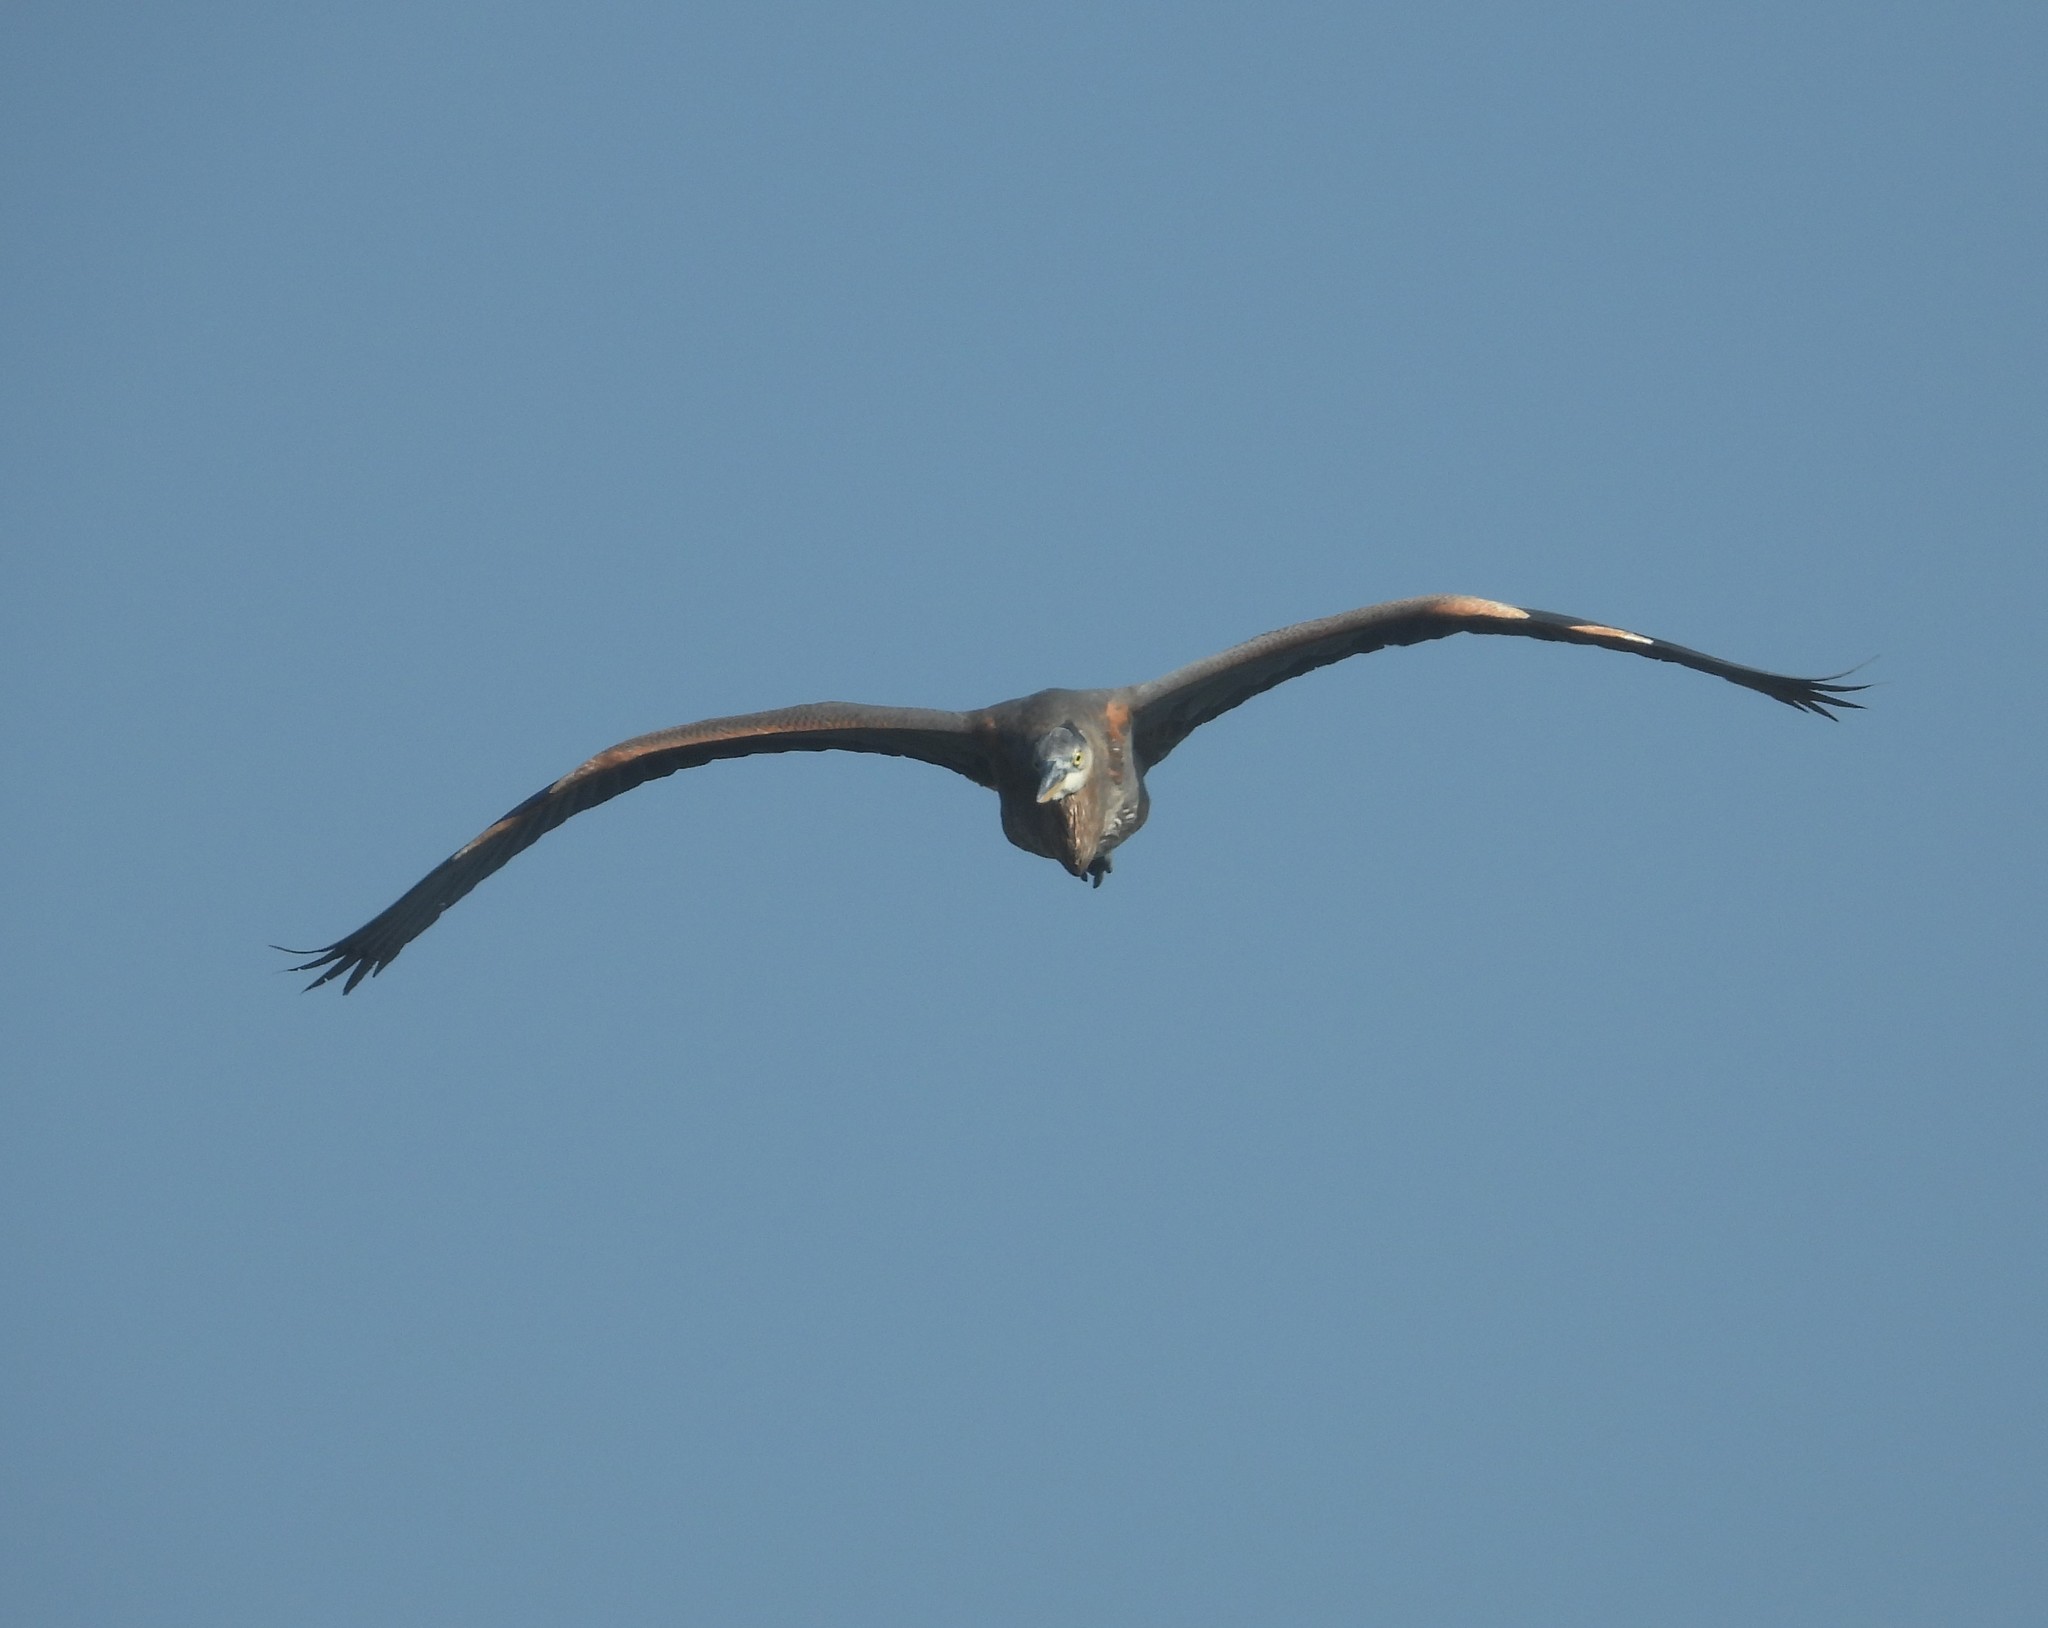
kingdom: Animalia
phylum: Chordata
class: Aves
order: Pelecaniformes
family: Ardeidae
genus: Ardea
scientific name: Ardea herodias
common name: Great blue heron
